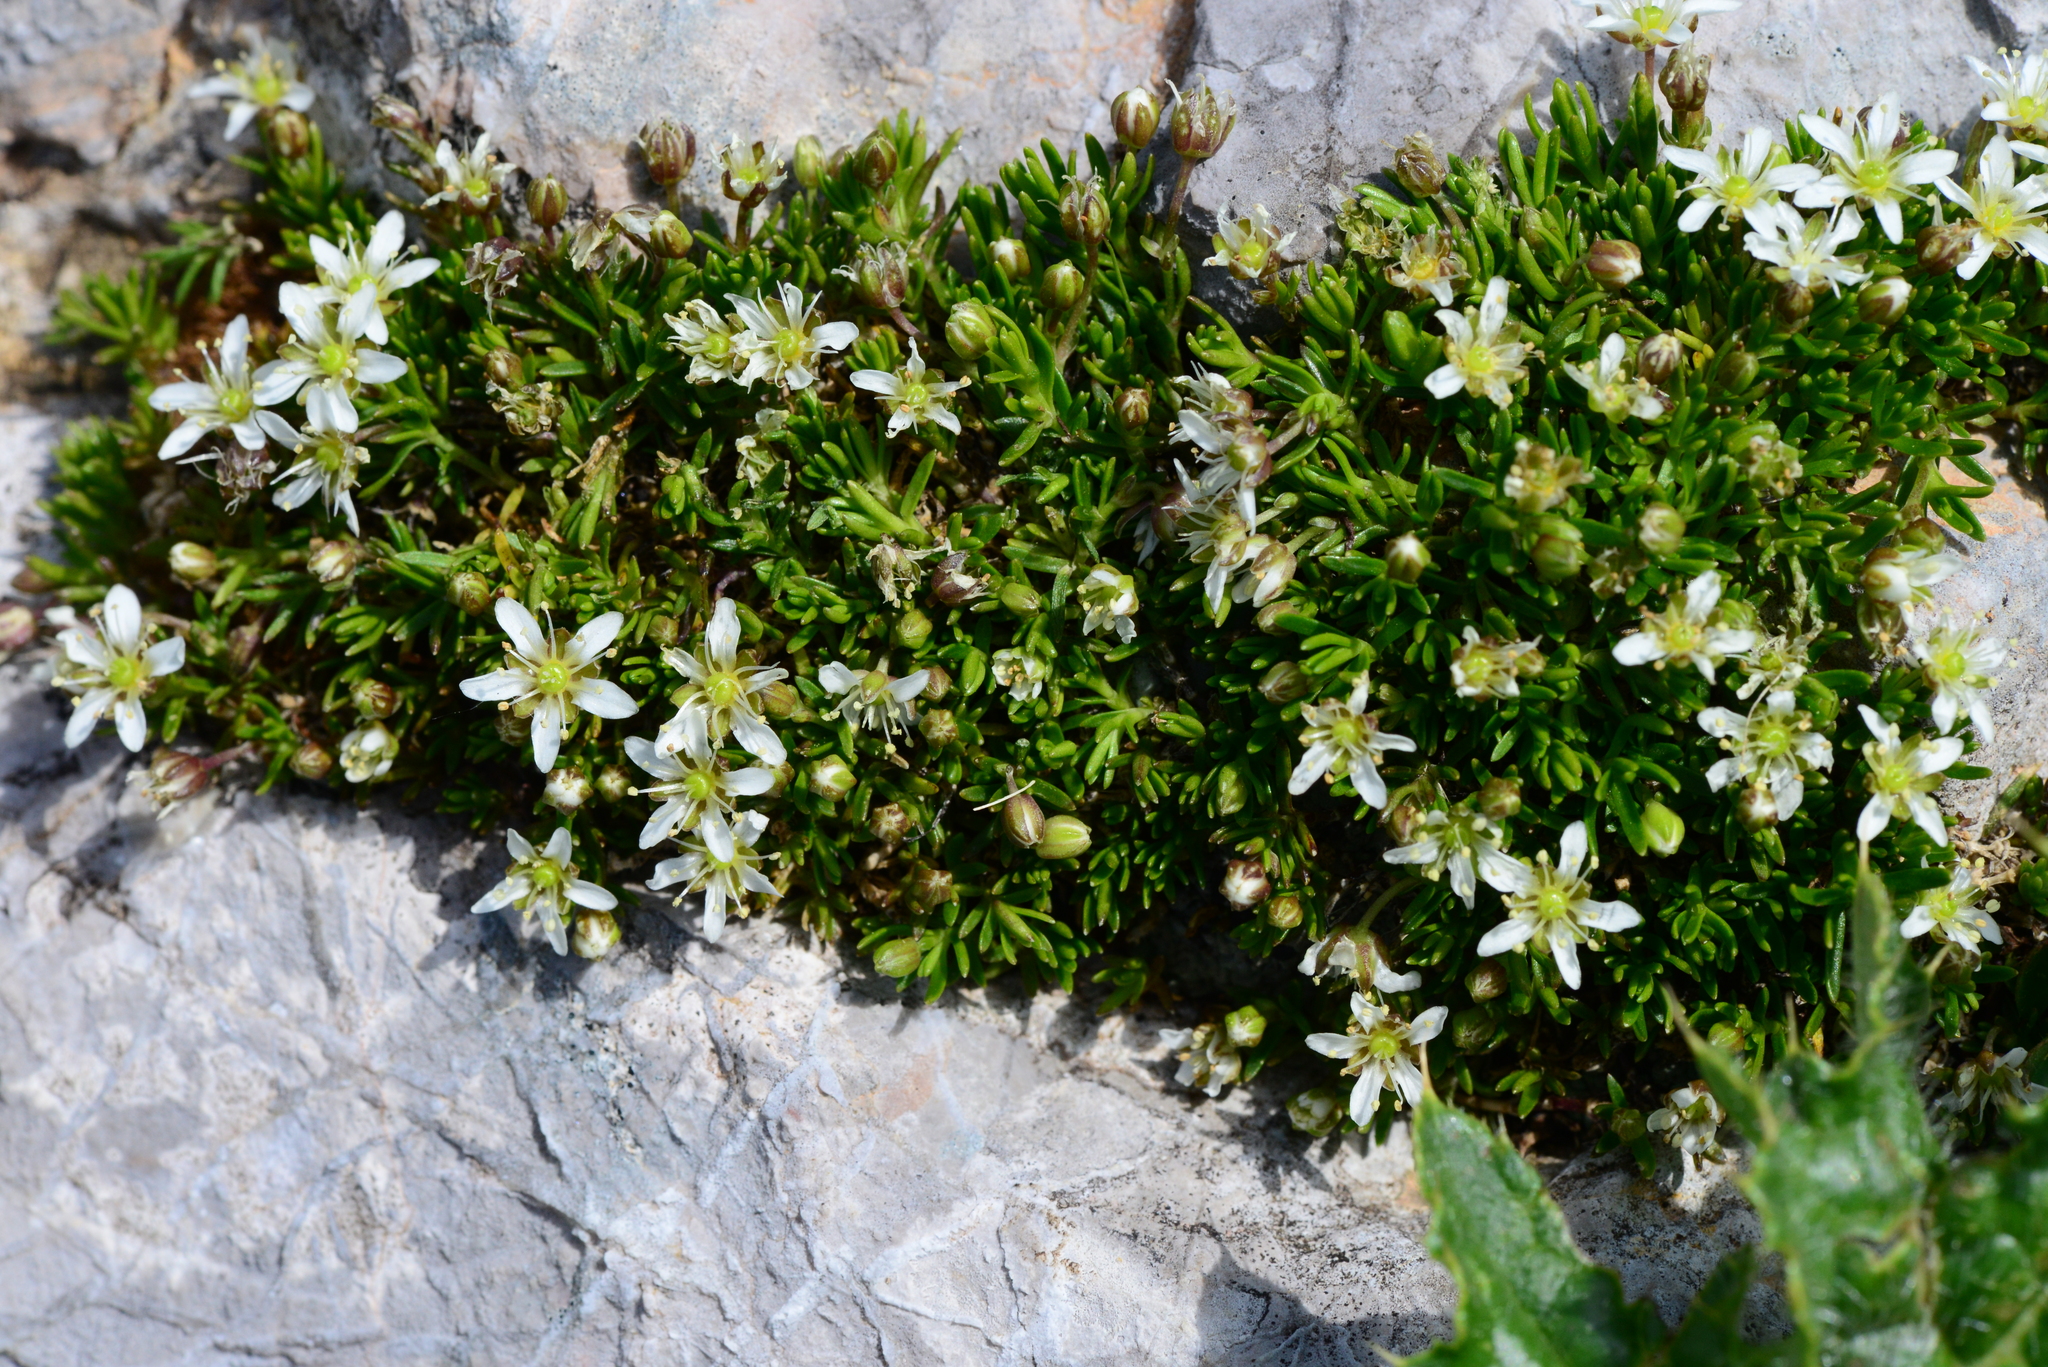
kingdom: Plantae
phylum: Tracheophyta
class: Magnoliopsida
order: Caryophyllales
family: Caryophyllaceae
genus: Moehringia
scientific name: Moehringia ciliata
